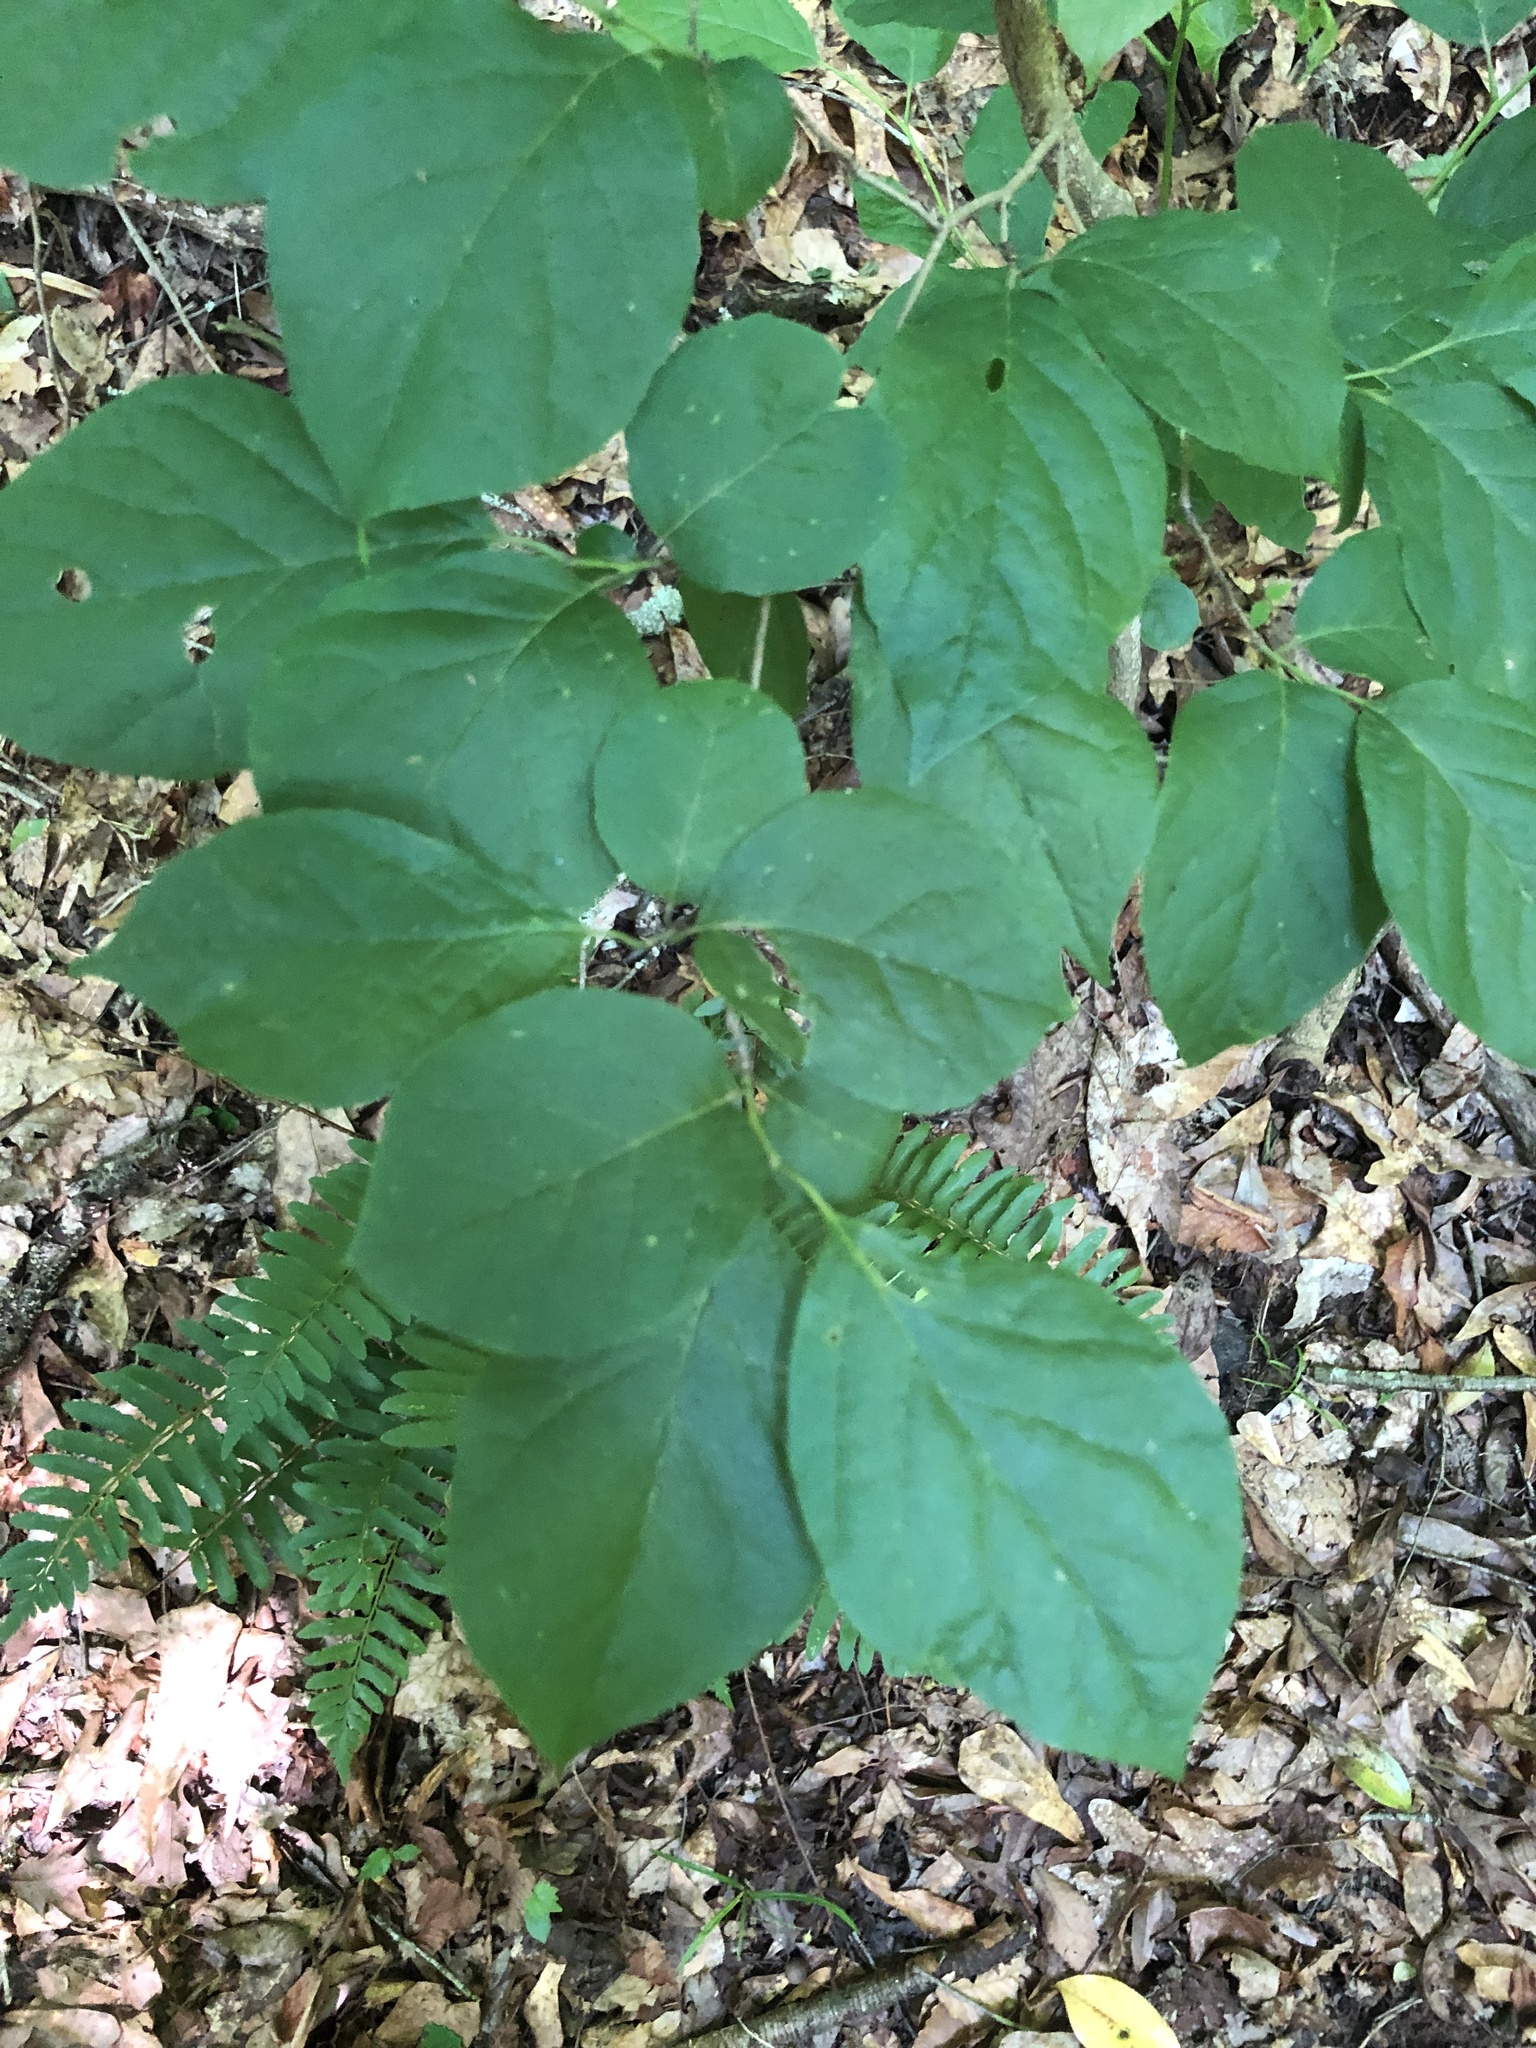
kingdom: Plantae
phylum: Tracheophyta
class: Magnoliopsida
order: Ericales
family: Styracaceae
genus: Styrax
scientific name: Styrax grandifolius
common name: Big-leaf snowbell
